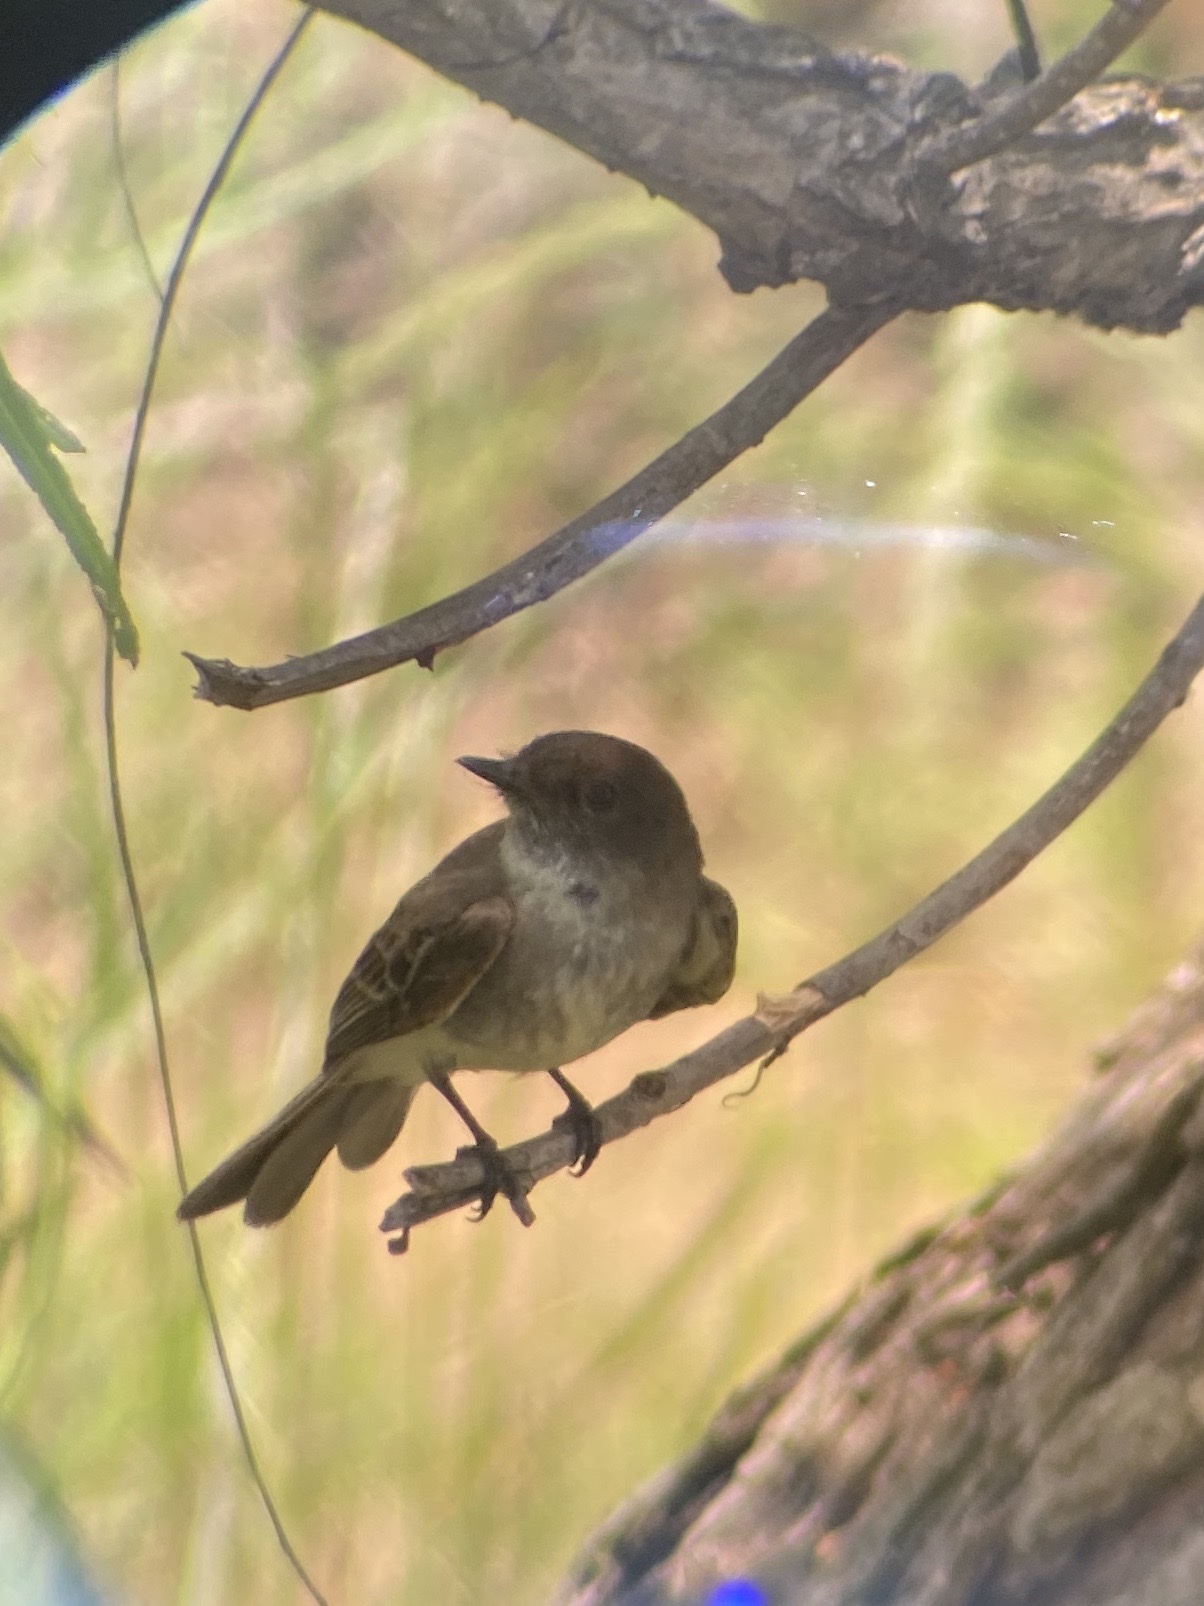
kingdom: Animalia
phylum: Chordata
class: Aves
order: Passeriformes
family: Tyrannidae
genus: Sayornis
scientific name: Sayornis phoebe
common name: Eastern phoebe
